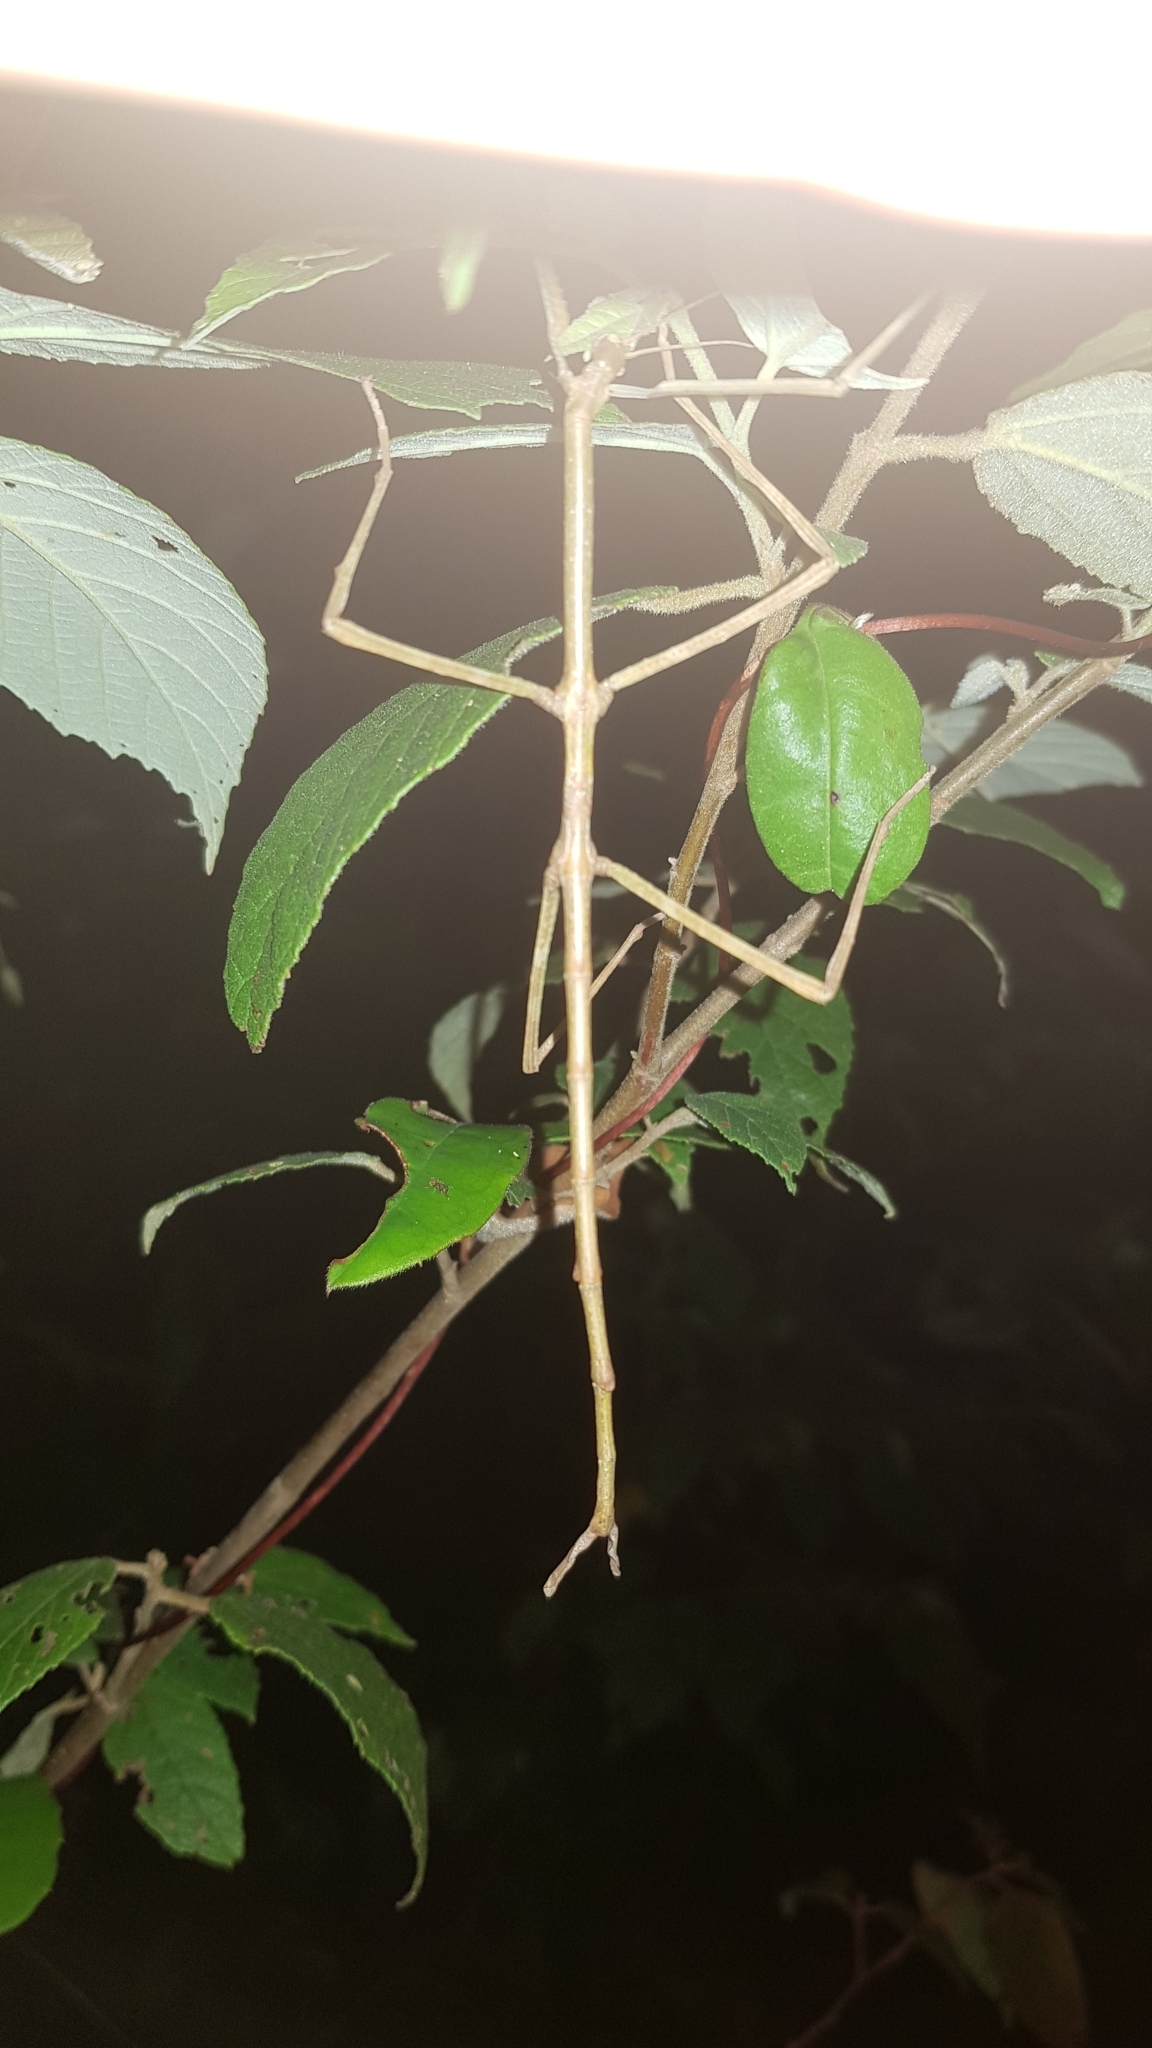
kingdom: Animalia
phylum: Arthropoda
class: Insecta
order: Phasmida
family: Phasmatidae
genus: Ctenomorpha
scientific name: Ctenomorpha marginipennis
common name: Margined-winged stick-insect
